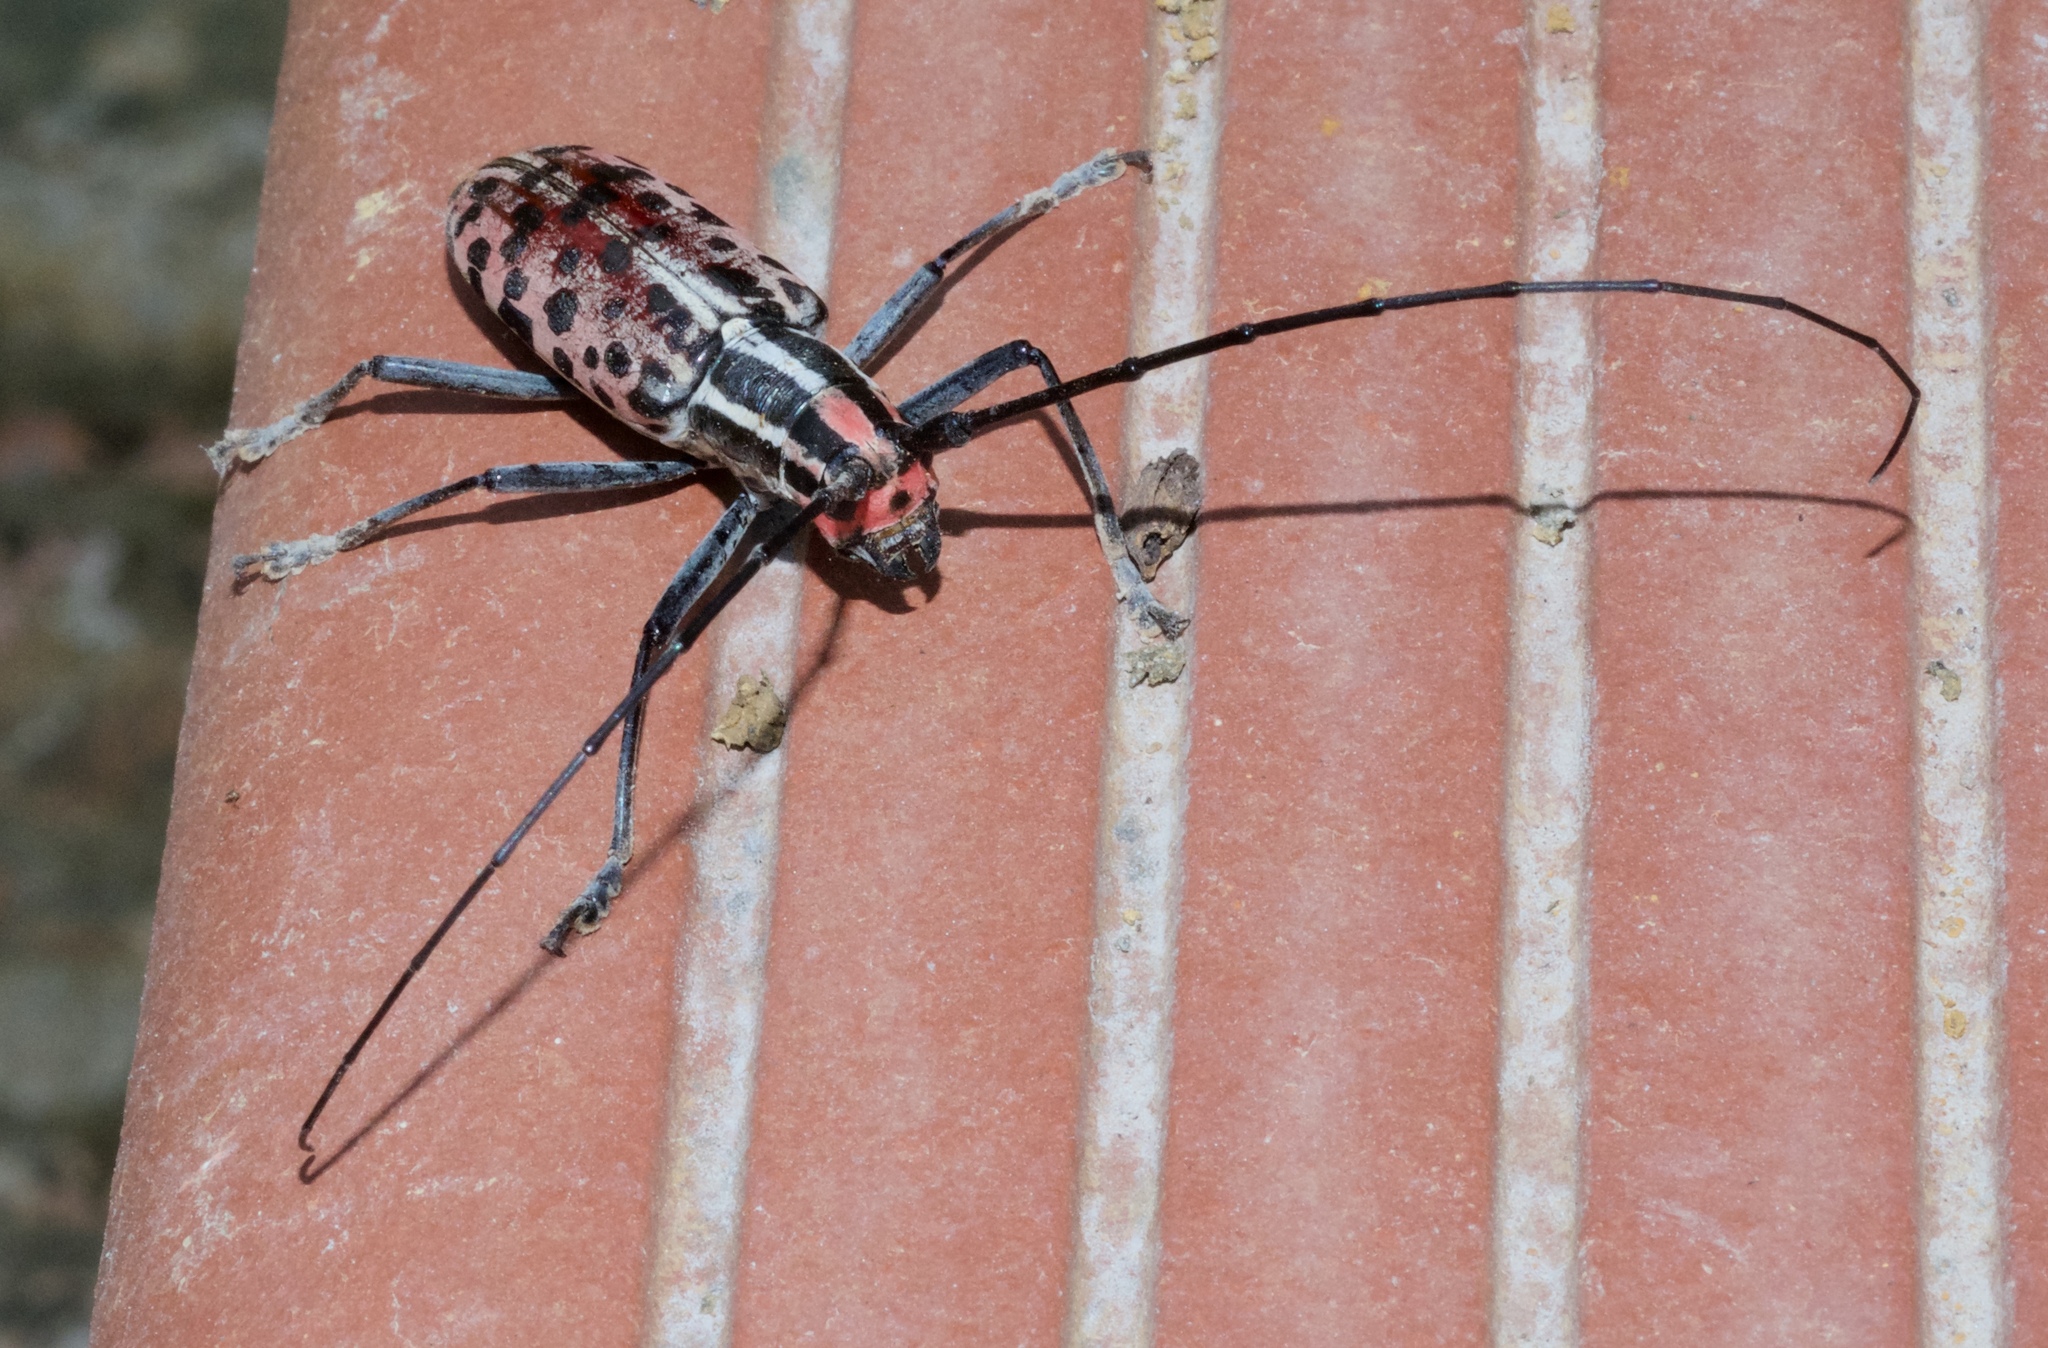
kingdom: Animalia
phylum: Arthropoda
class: Insecta
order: Coleoptera
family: Cerambycidae
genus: Macrochenus
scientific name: Macrochenus guerinii
